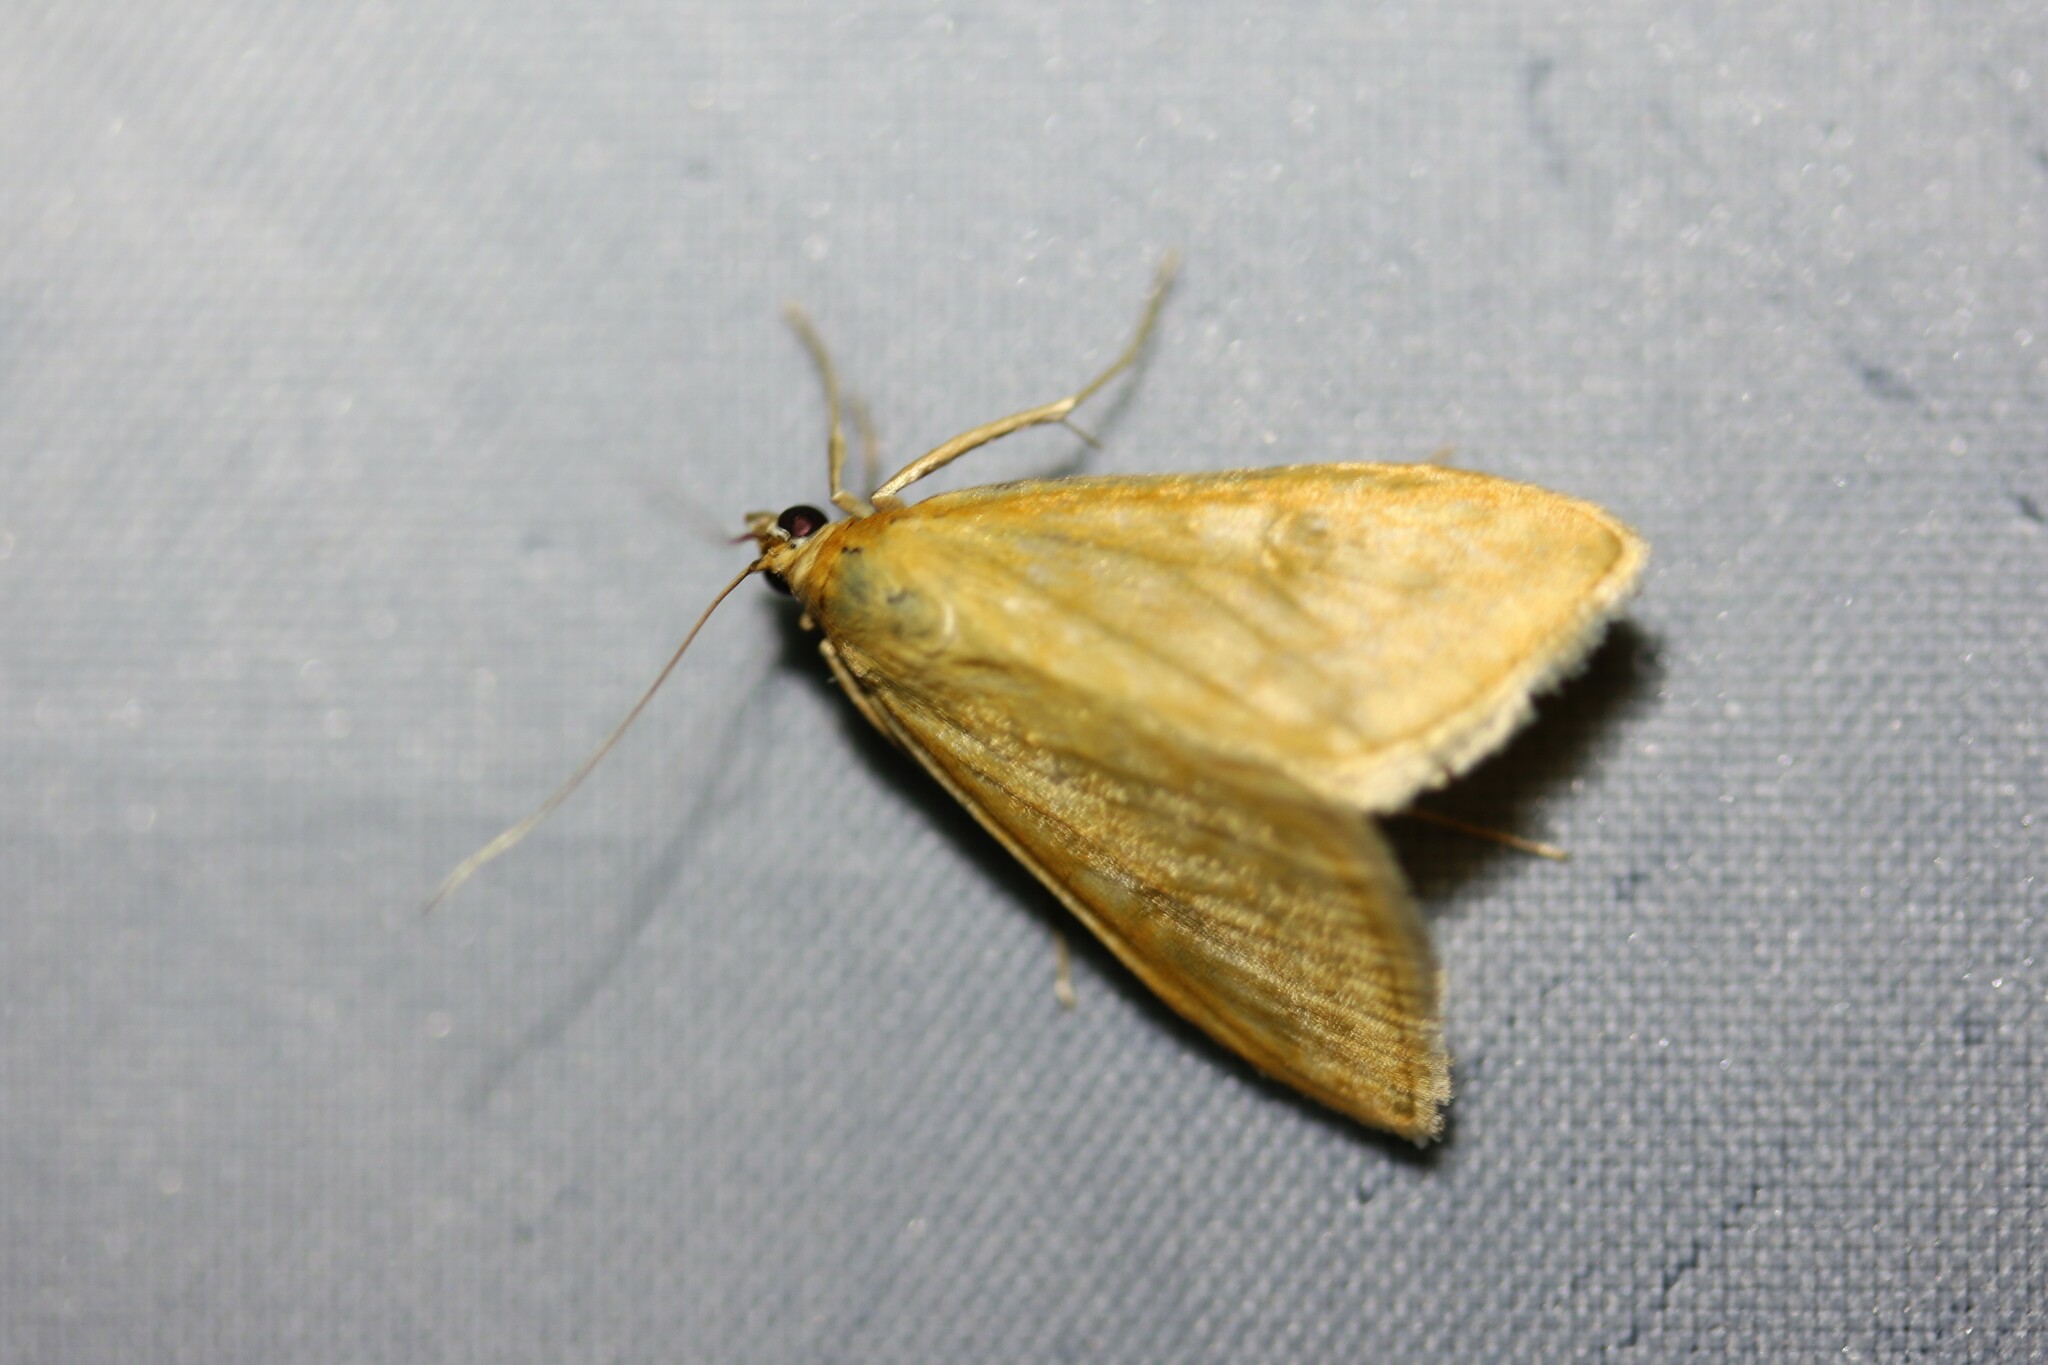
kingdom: Animalia
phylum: Arthropoda
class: Insecta
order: Lepidoptera
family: Crambidae
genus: Sitochroa
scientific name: Sitochroa verticalis
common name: Lesser pearl
